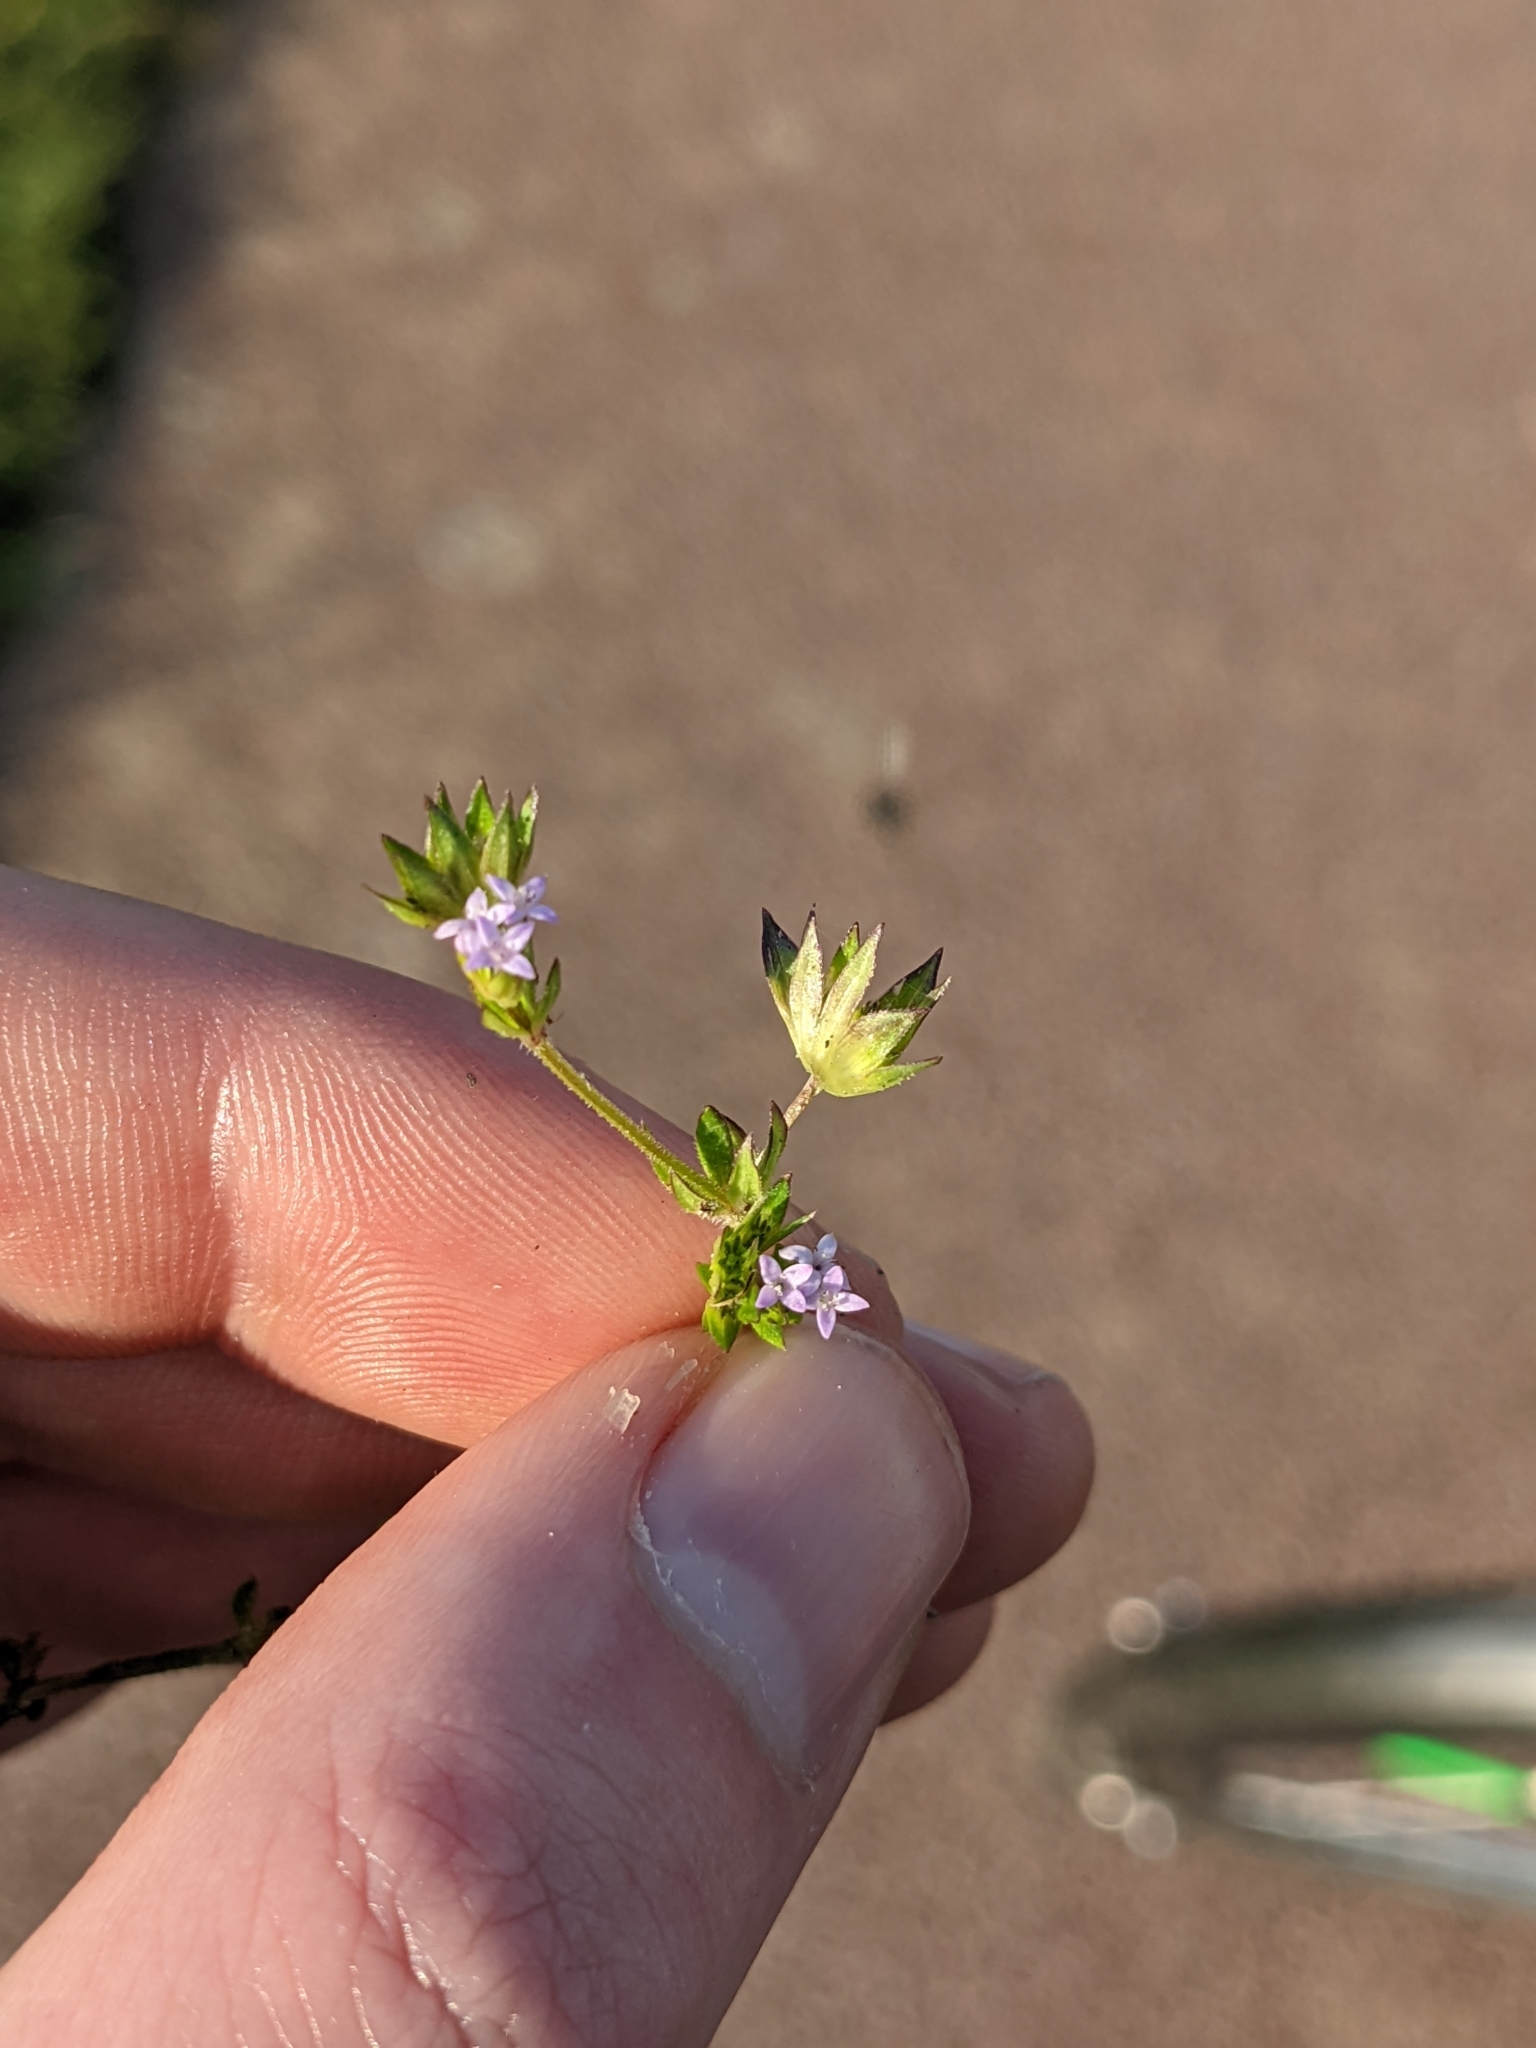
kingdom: Plantae
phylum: Tracheophyta
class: Magnoliopsida
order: Gentianales
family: Rubiaceae
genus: Sherardia
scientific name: Sherardia arvensis
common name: Field madder
